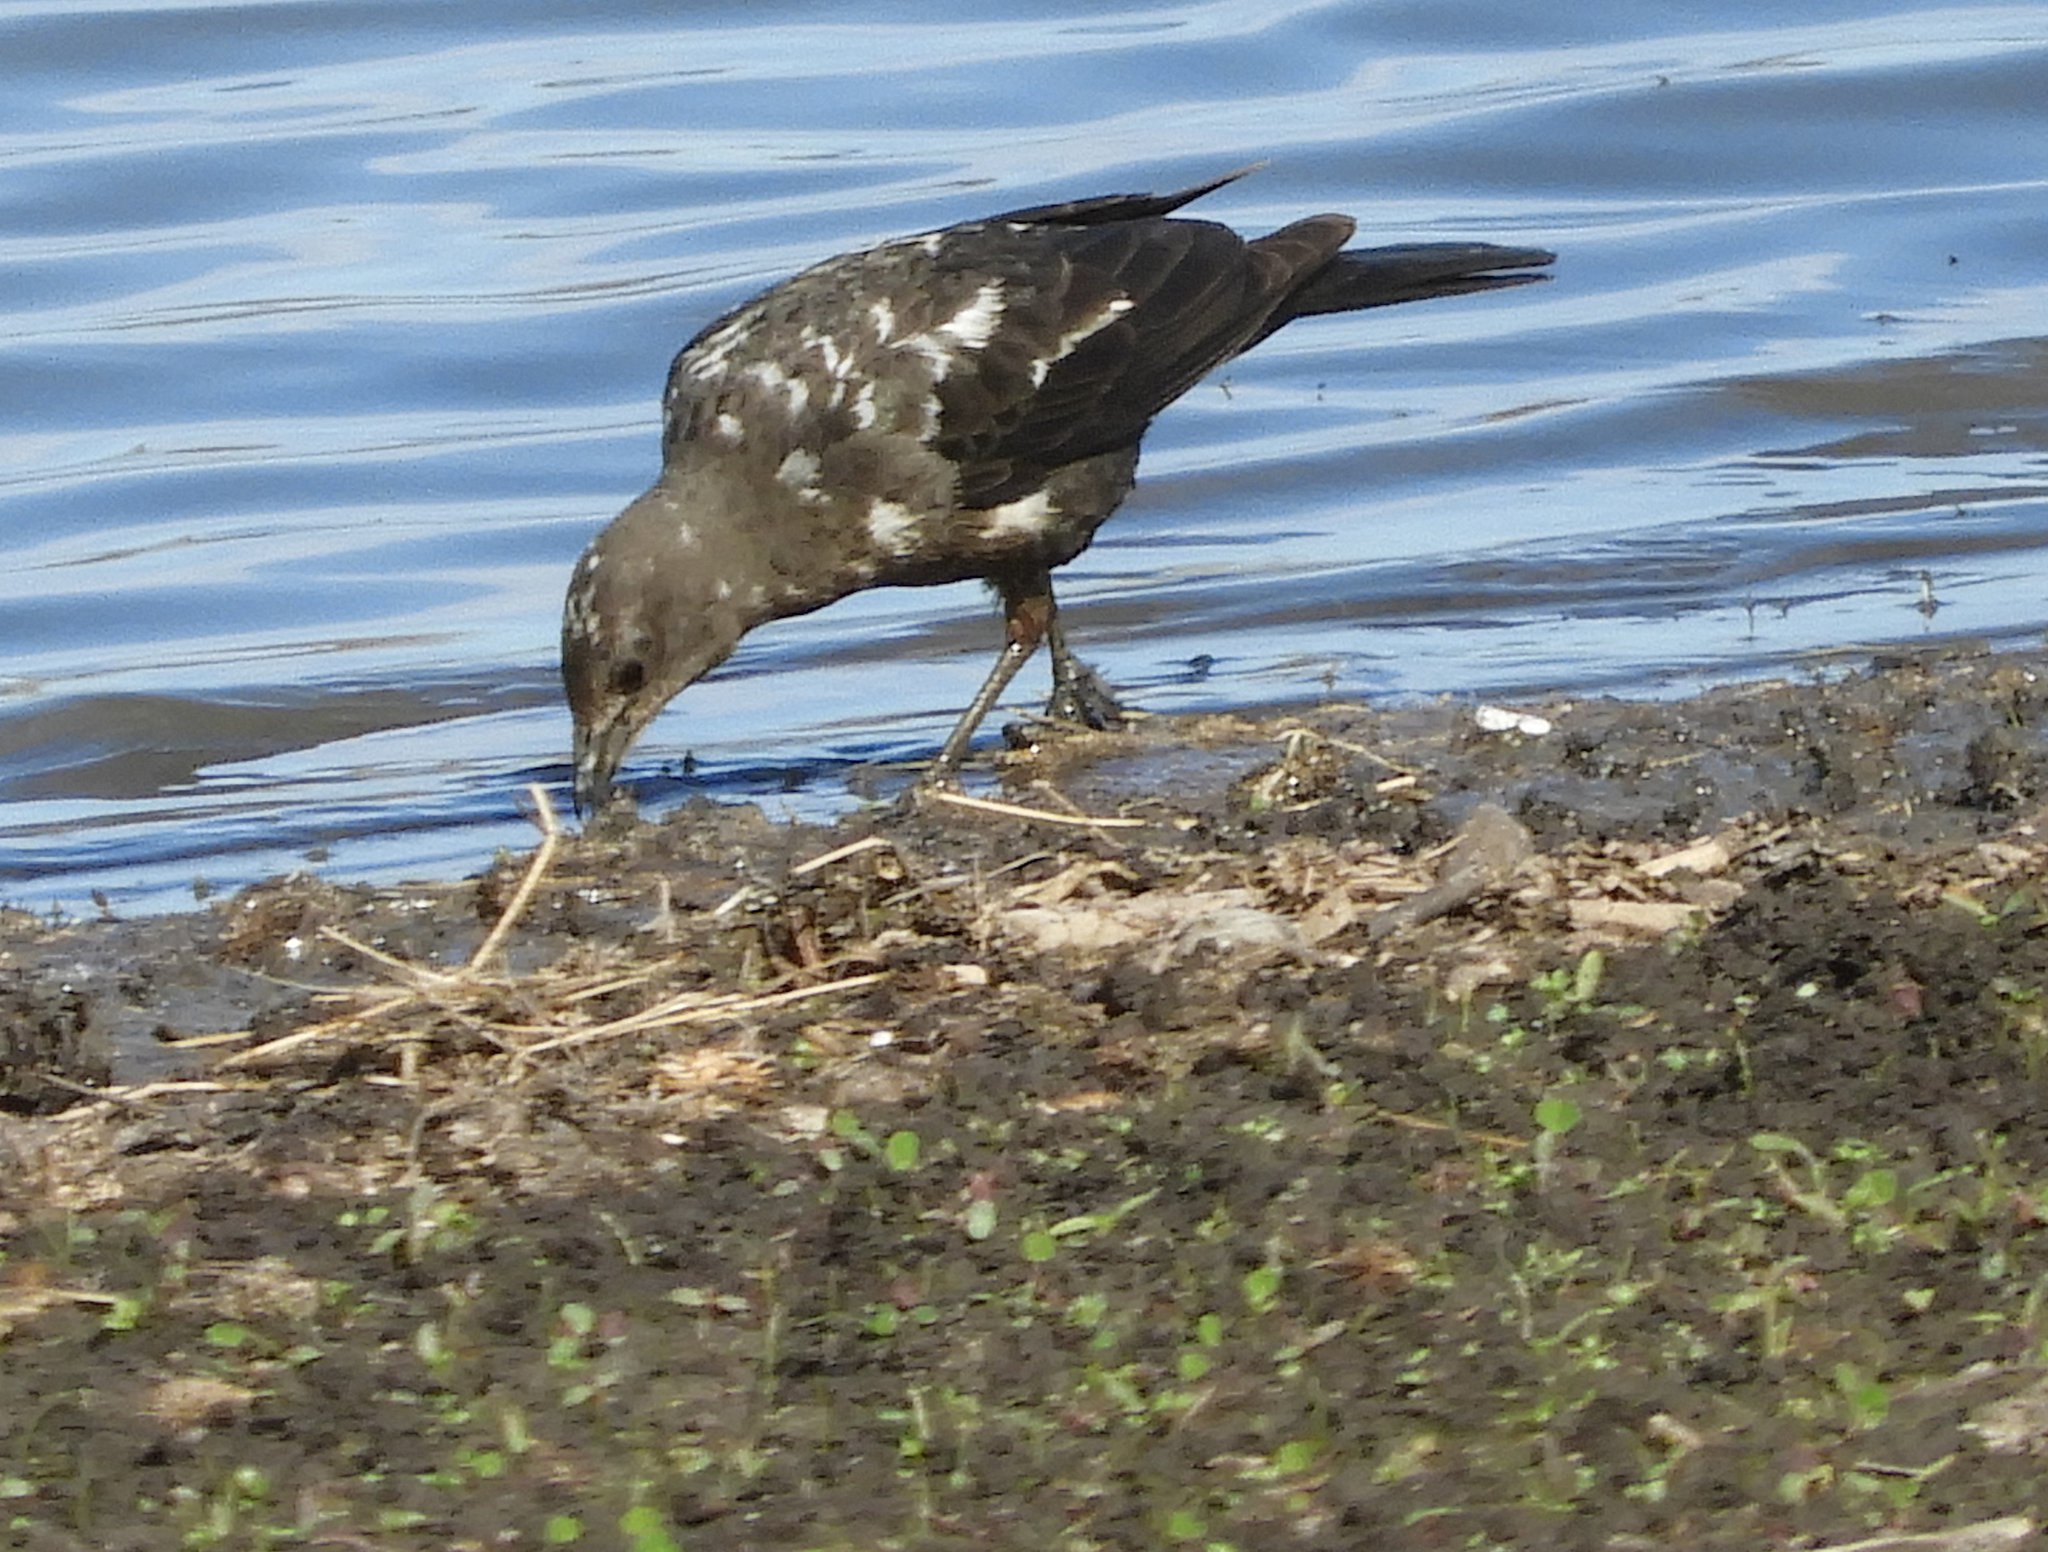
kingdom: Animalia
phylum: Chordata
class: Aves
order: Passeriformes
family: Icteridae
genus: Euphagus
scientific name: Euphagus cyanocephalus
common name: Brewer's blackbird
